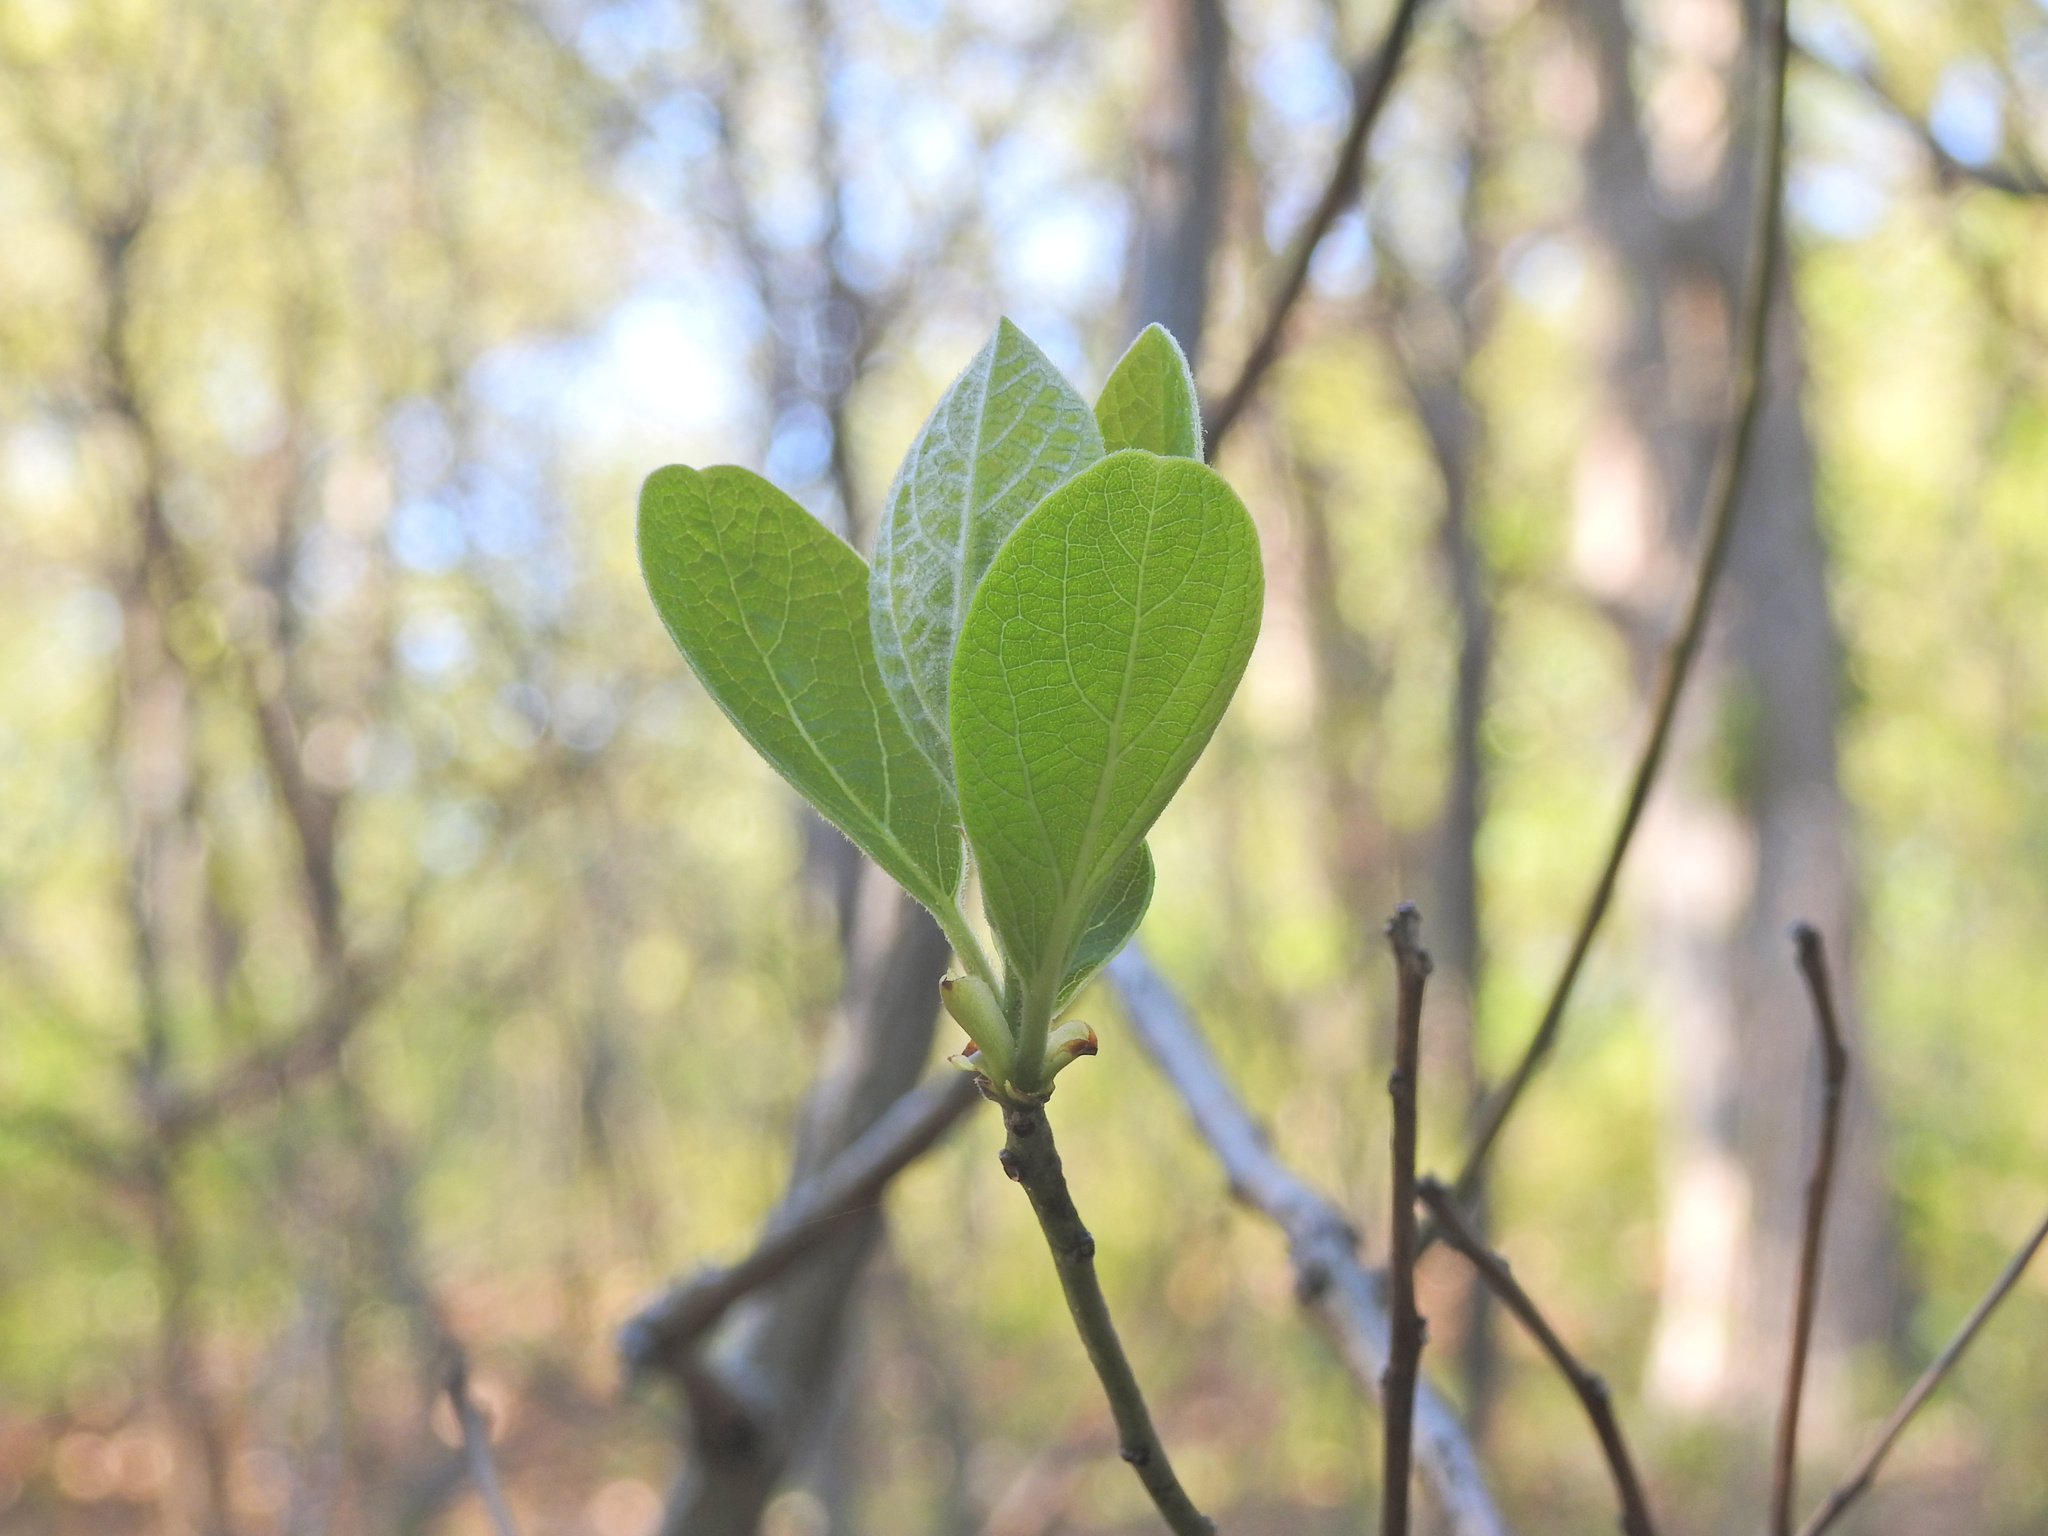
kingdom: Plantae
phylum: Tracheophyta
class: Magnoliopsida
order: Laurales
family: Lauraceae
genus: Sassafras
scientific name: Sassafras albidum
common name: Sassafras
